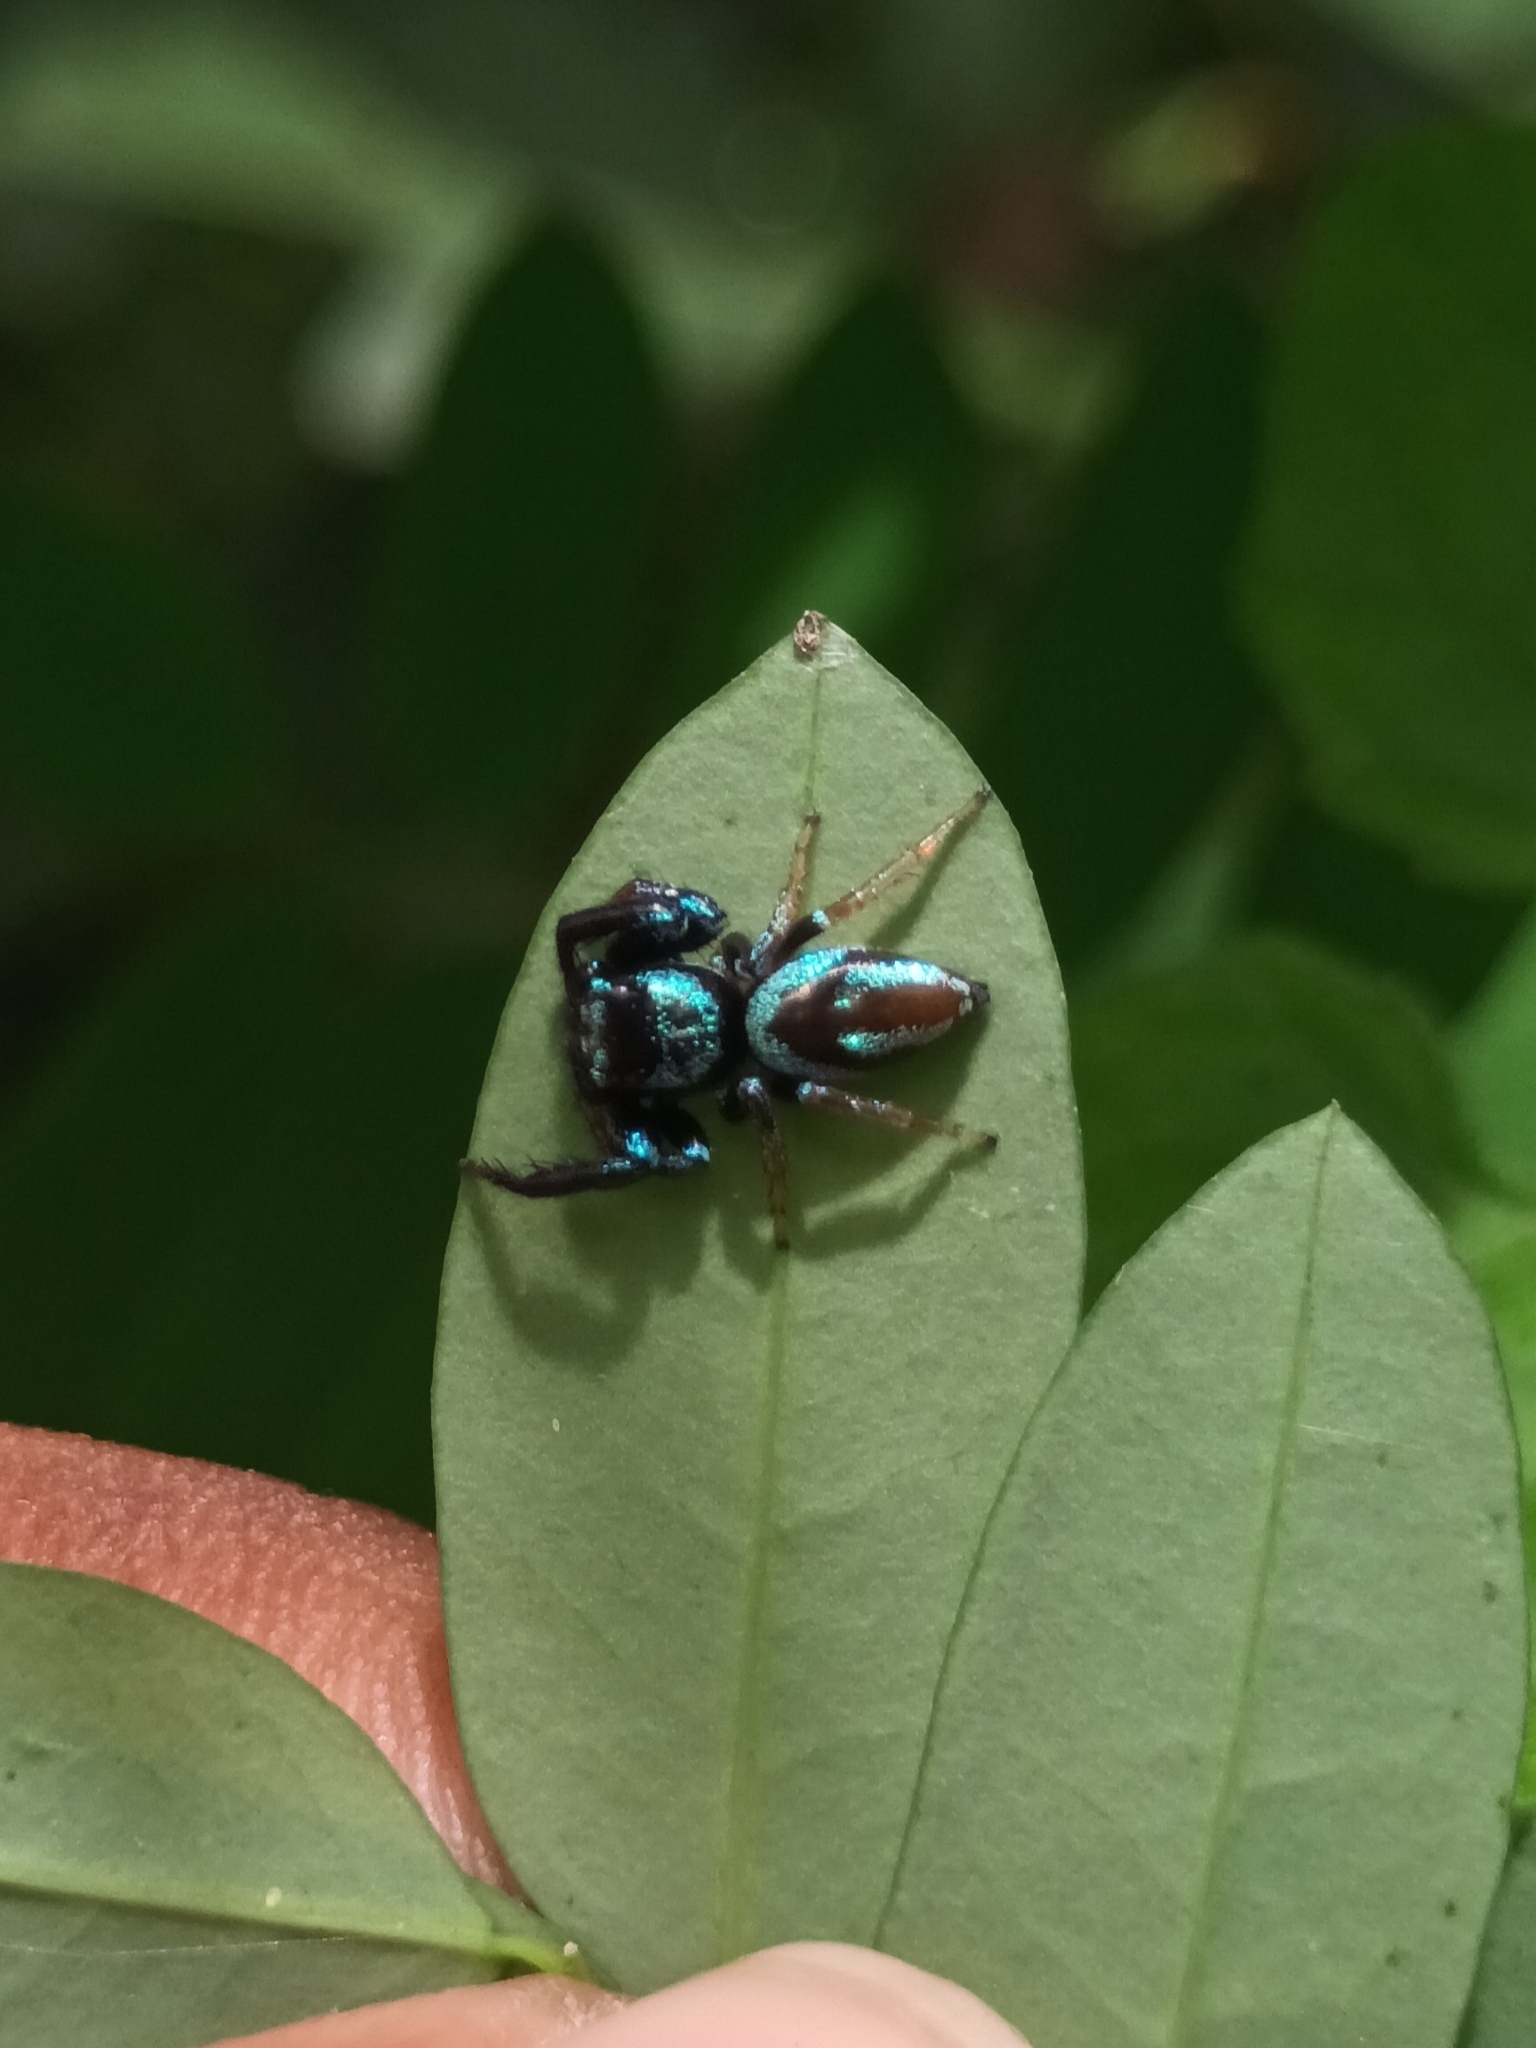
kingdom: Animalia
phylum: Arthropoda
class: Arachnida
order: Araneae
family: Salticidae
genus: Thiania
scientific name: Thiania bhamoensis
